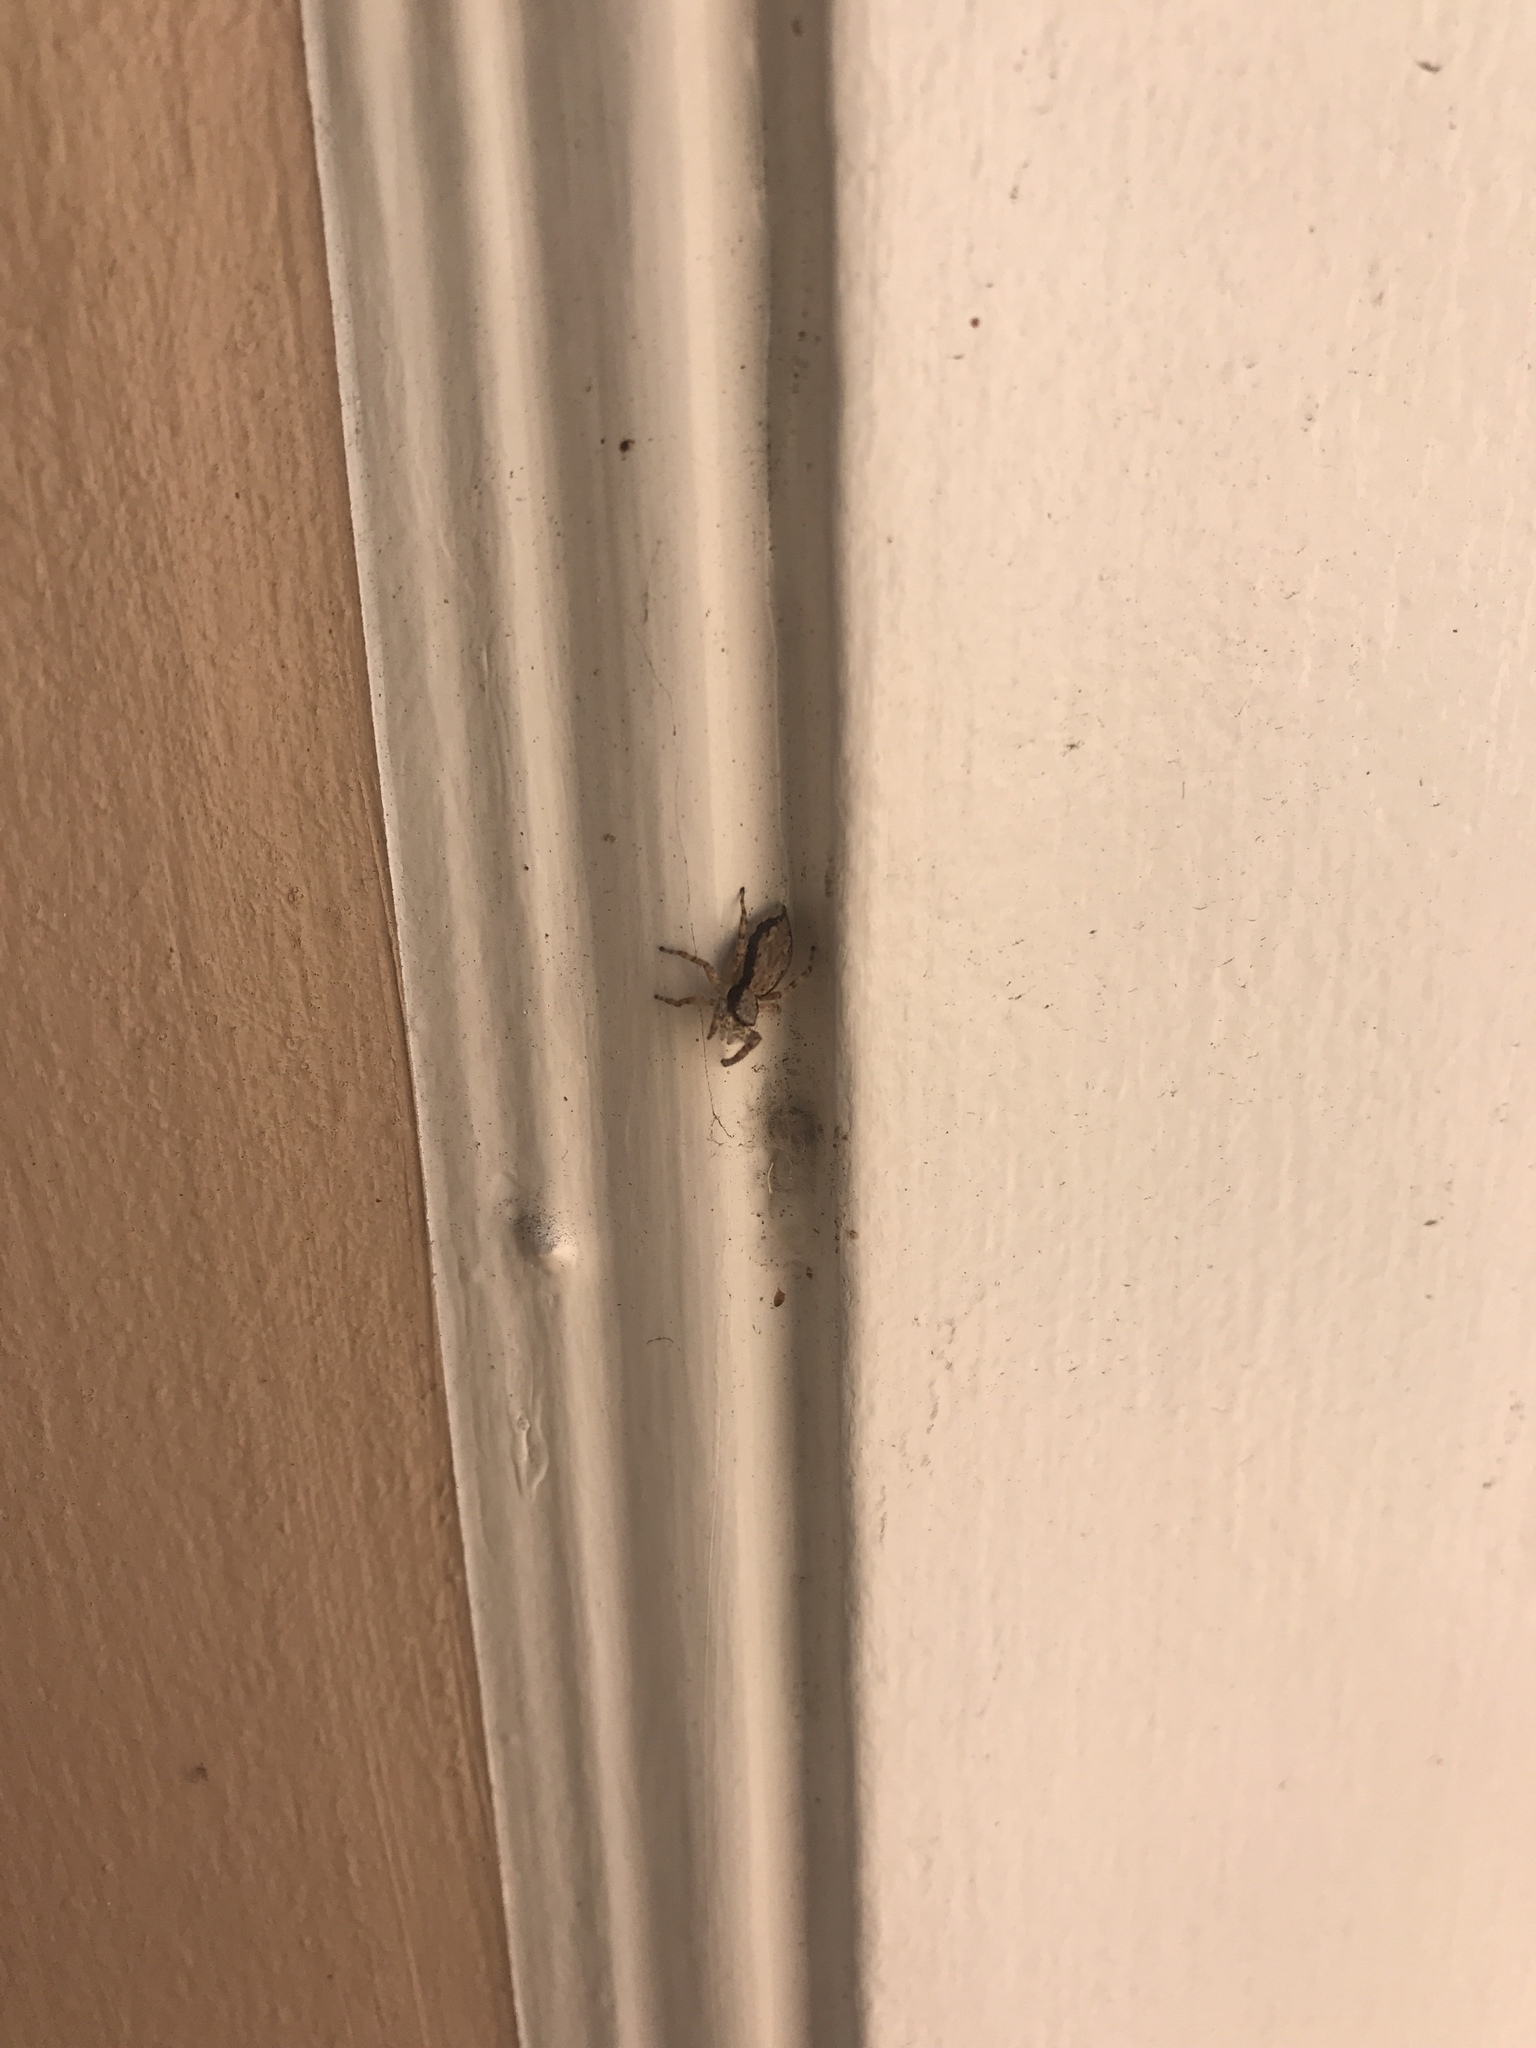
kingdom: Animalia
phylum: Arthropoda
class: Arachnida
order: Araneae
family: Salticidae
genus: Menemerus
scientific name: Menemerus bivittatus
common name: Gray wall jumper
